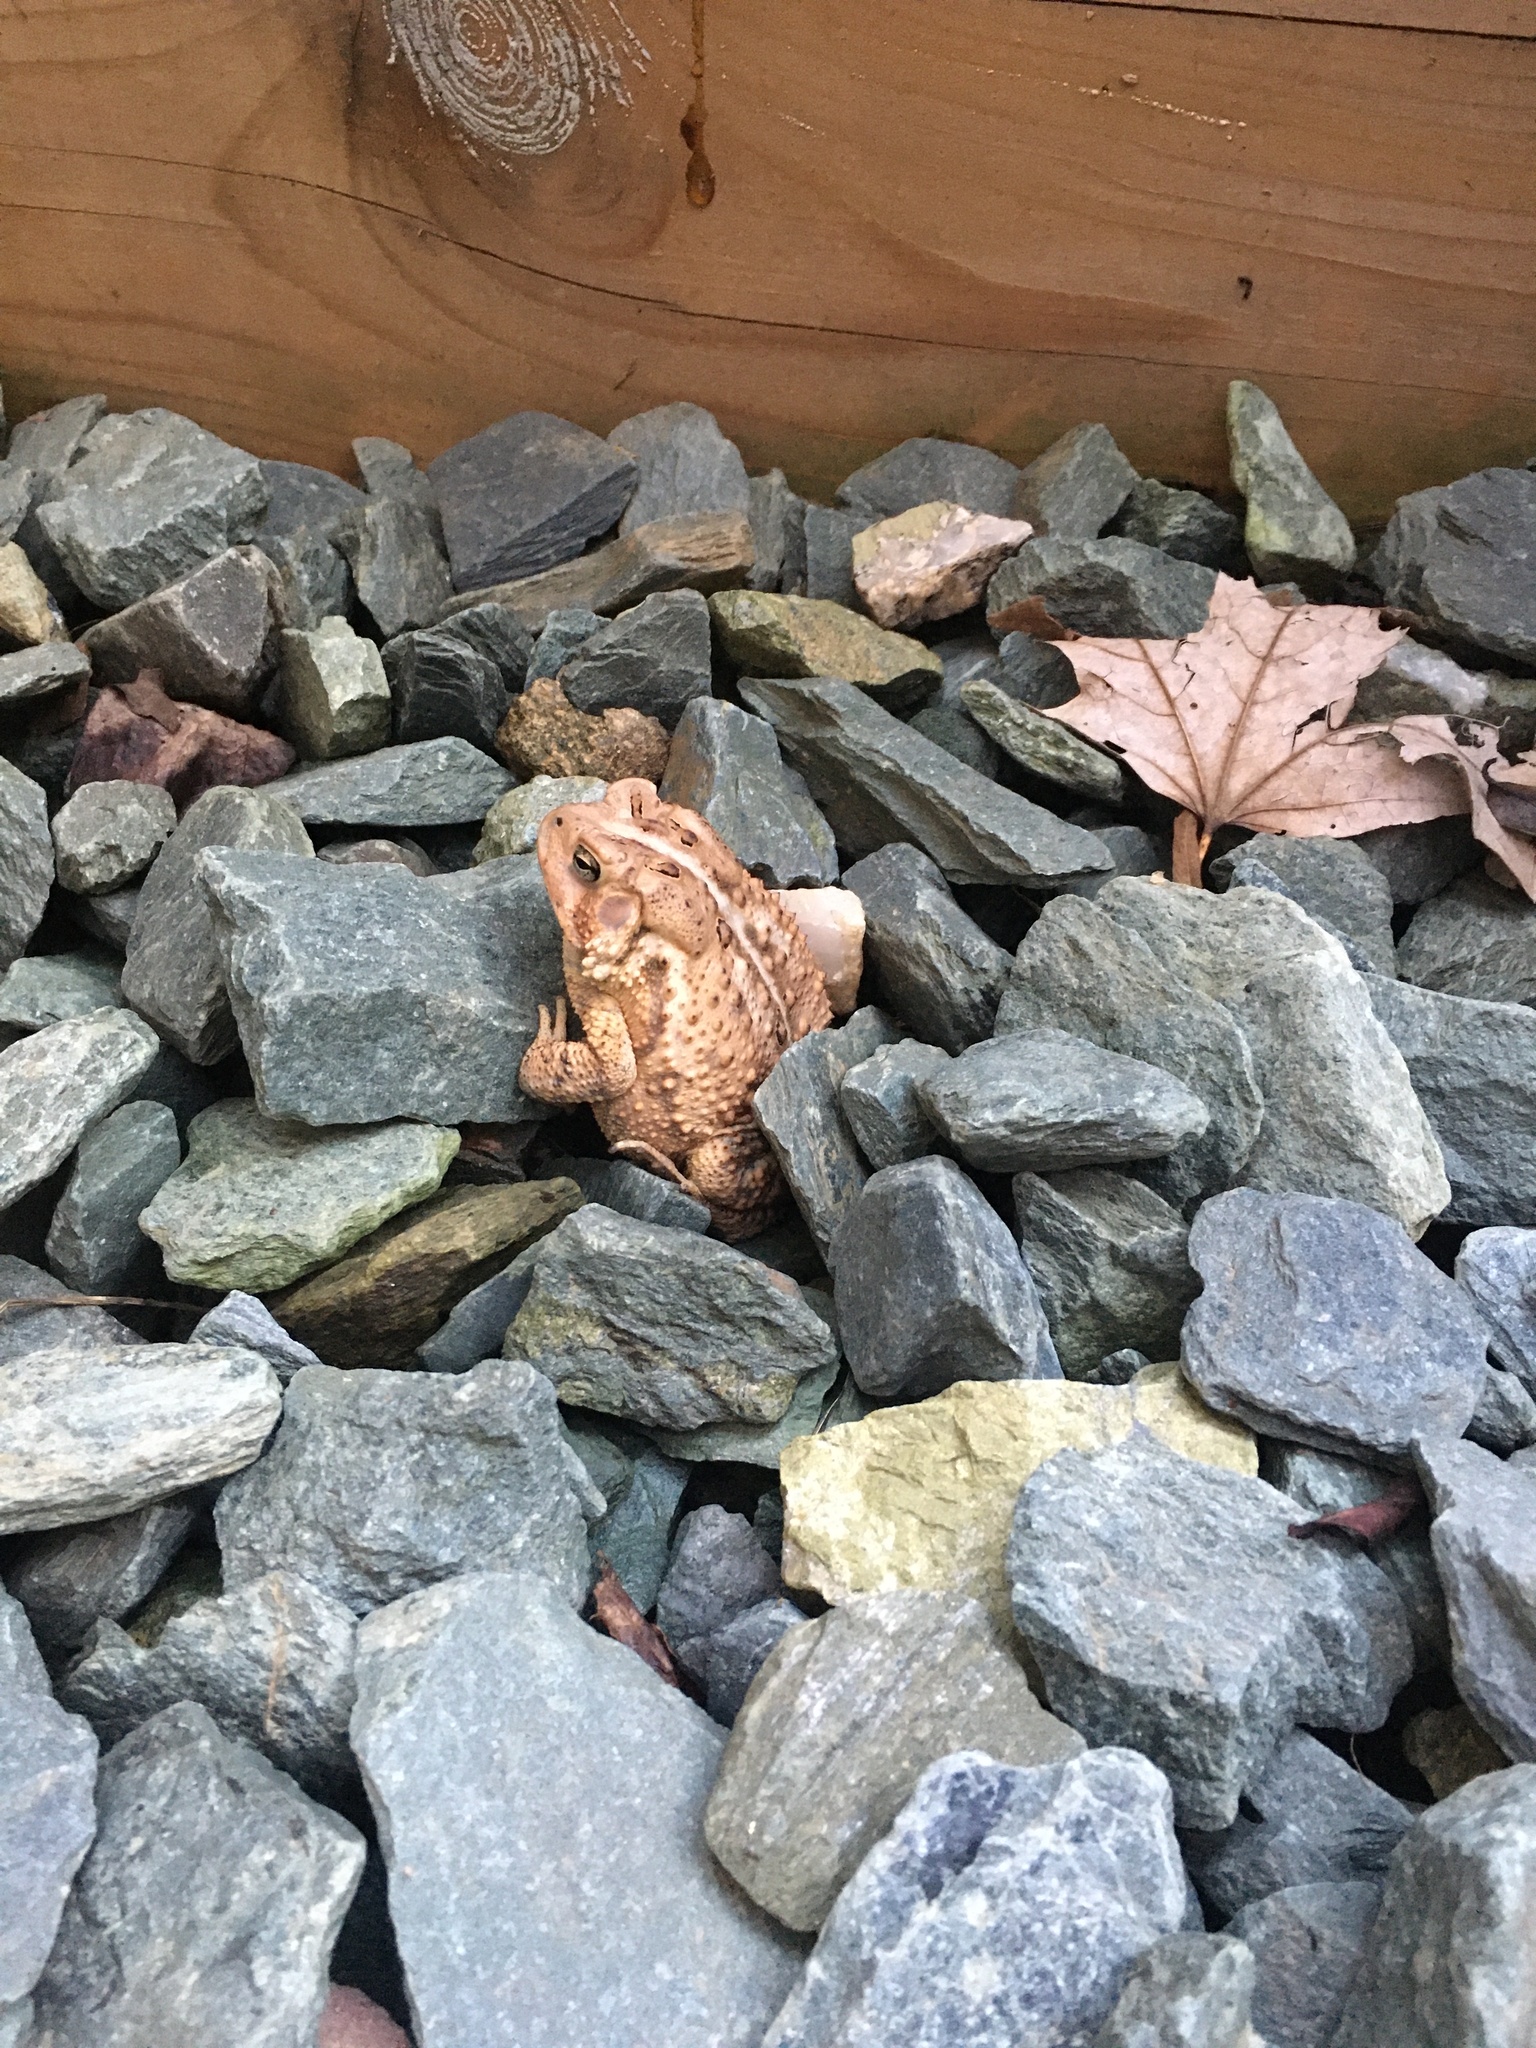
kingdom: Animalia
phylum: Chordata
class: Amphibia
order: Anura
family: Bufonidae
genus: Anaxyrus
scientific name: Anaxyrus americanus
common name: American toad
